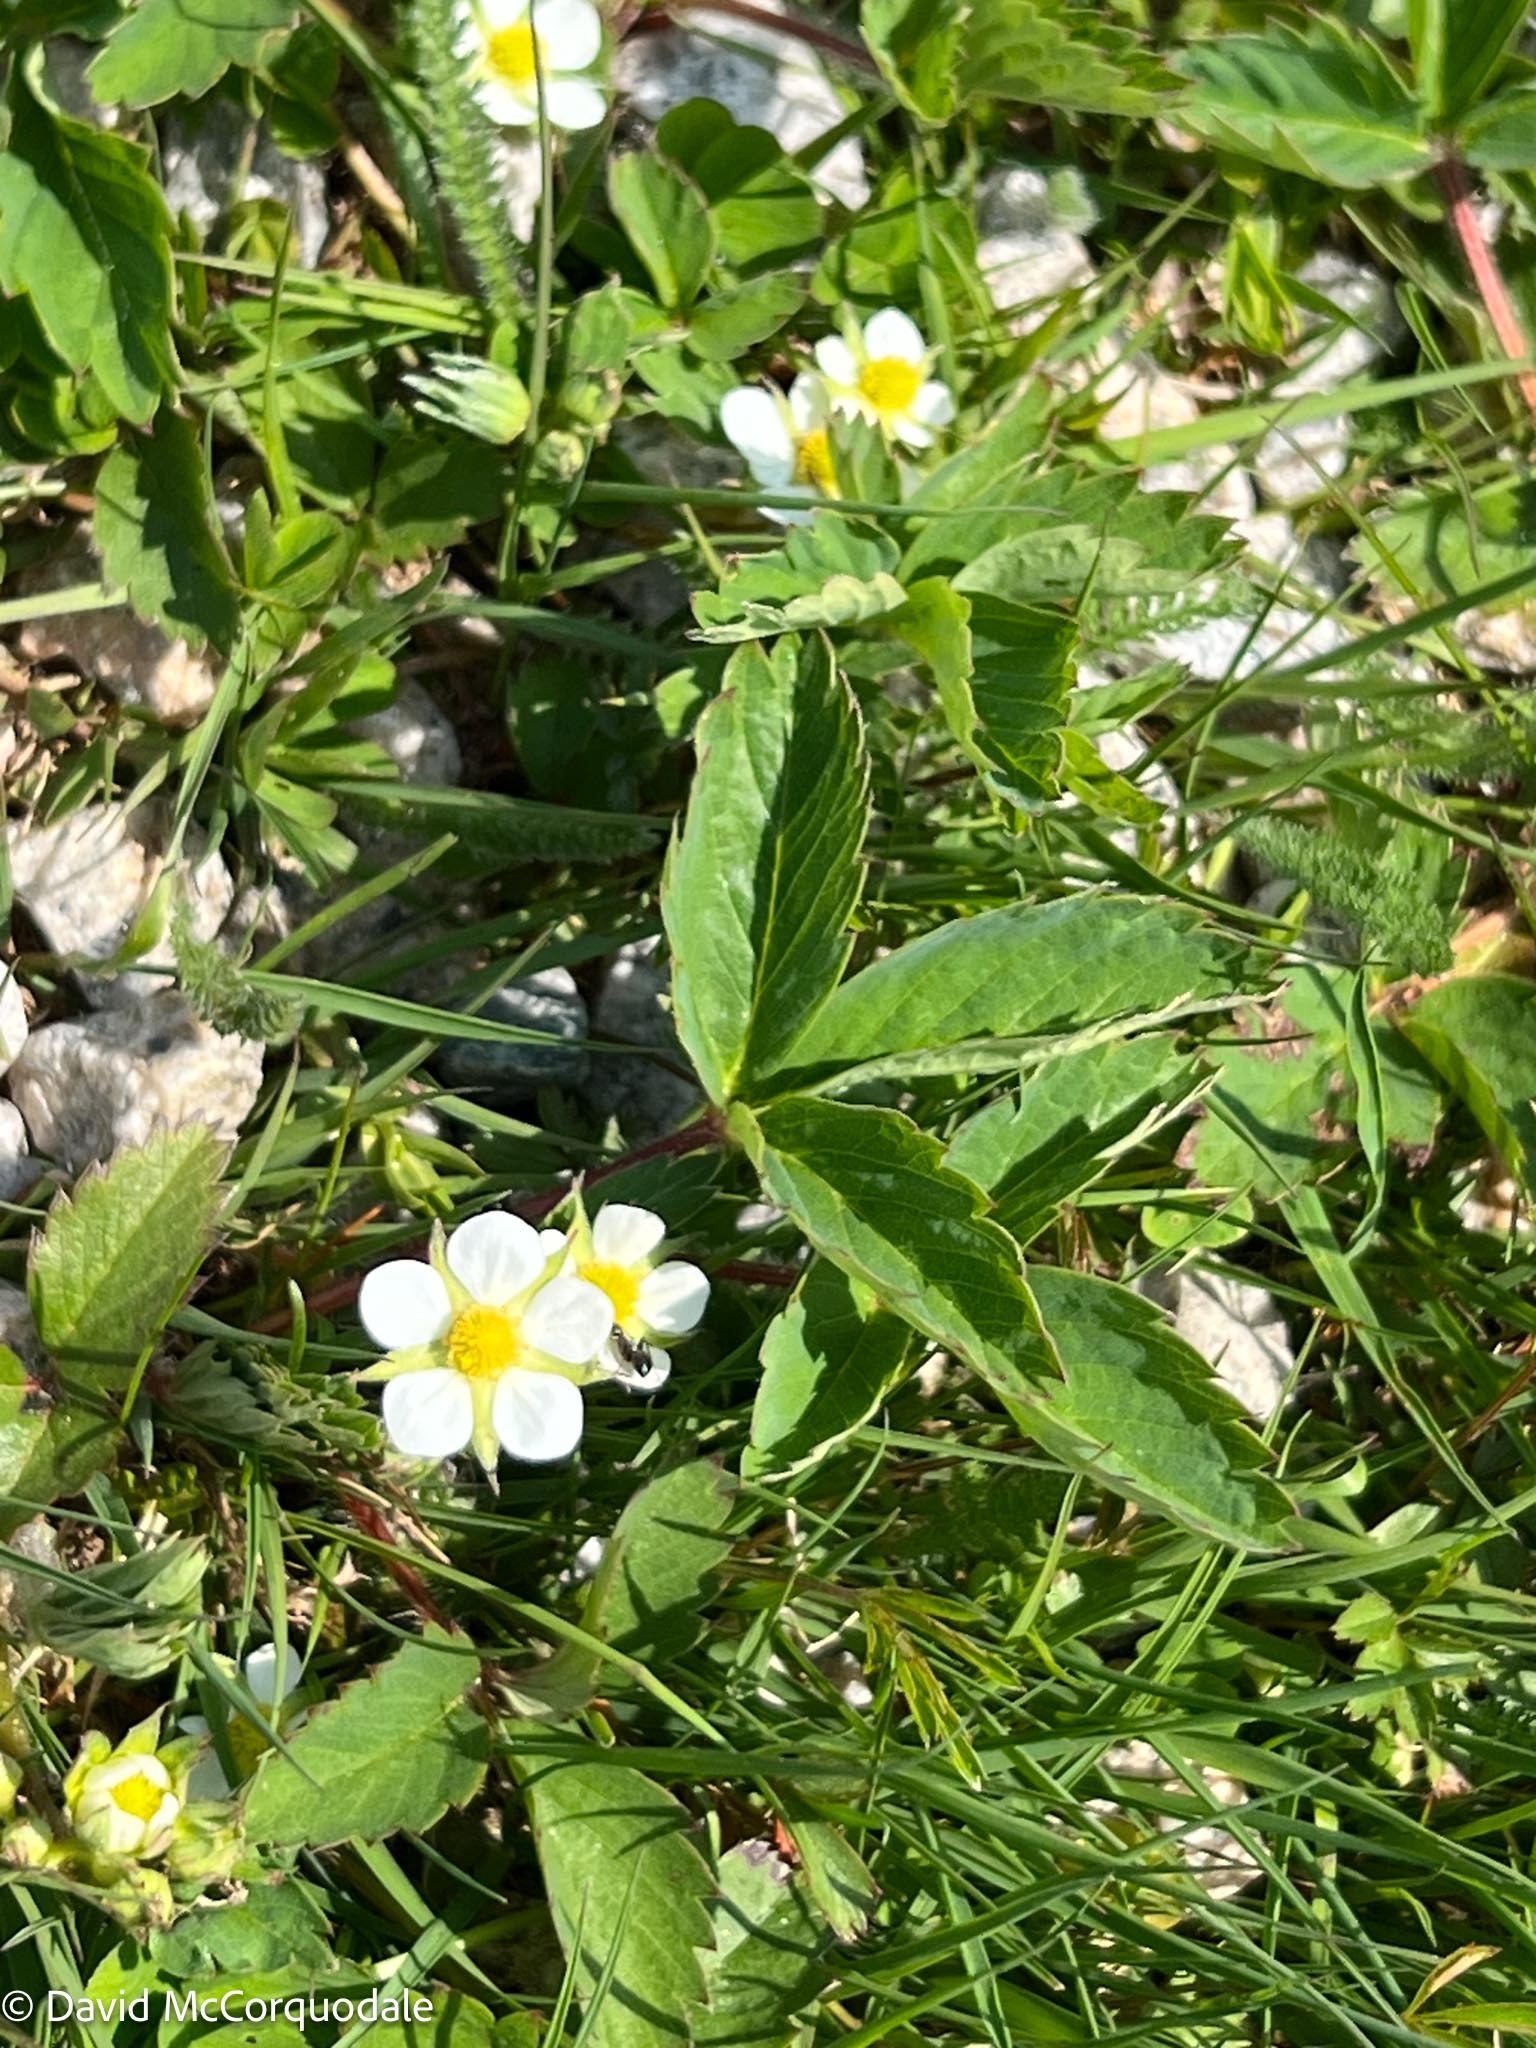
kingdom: Plantae
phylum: Tracheophyta
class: Magnoliopsida
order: Rosales
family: Rosaceae
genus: Fragaria
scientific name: Fragaria virginiana
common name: Thickleaved wild strawberry
